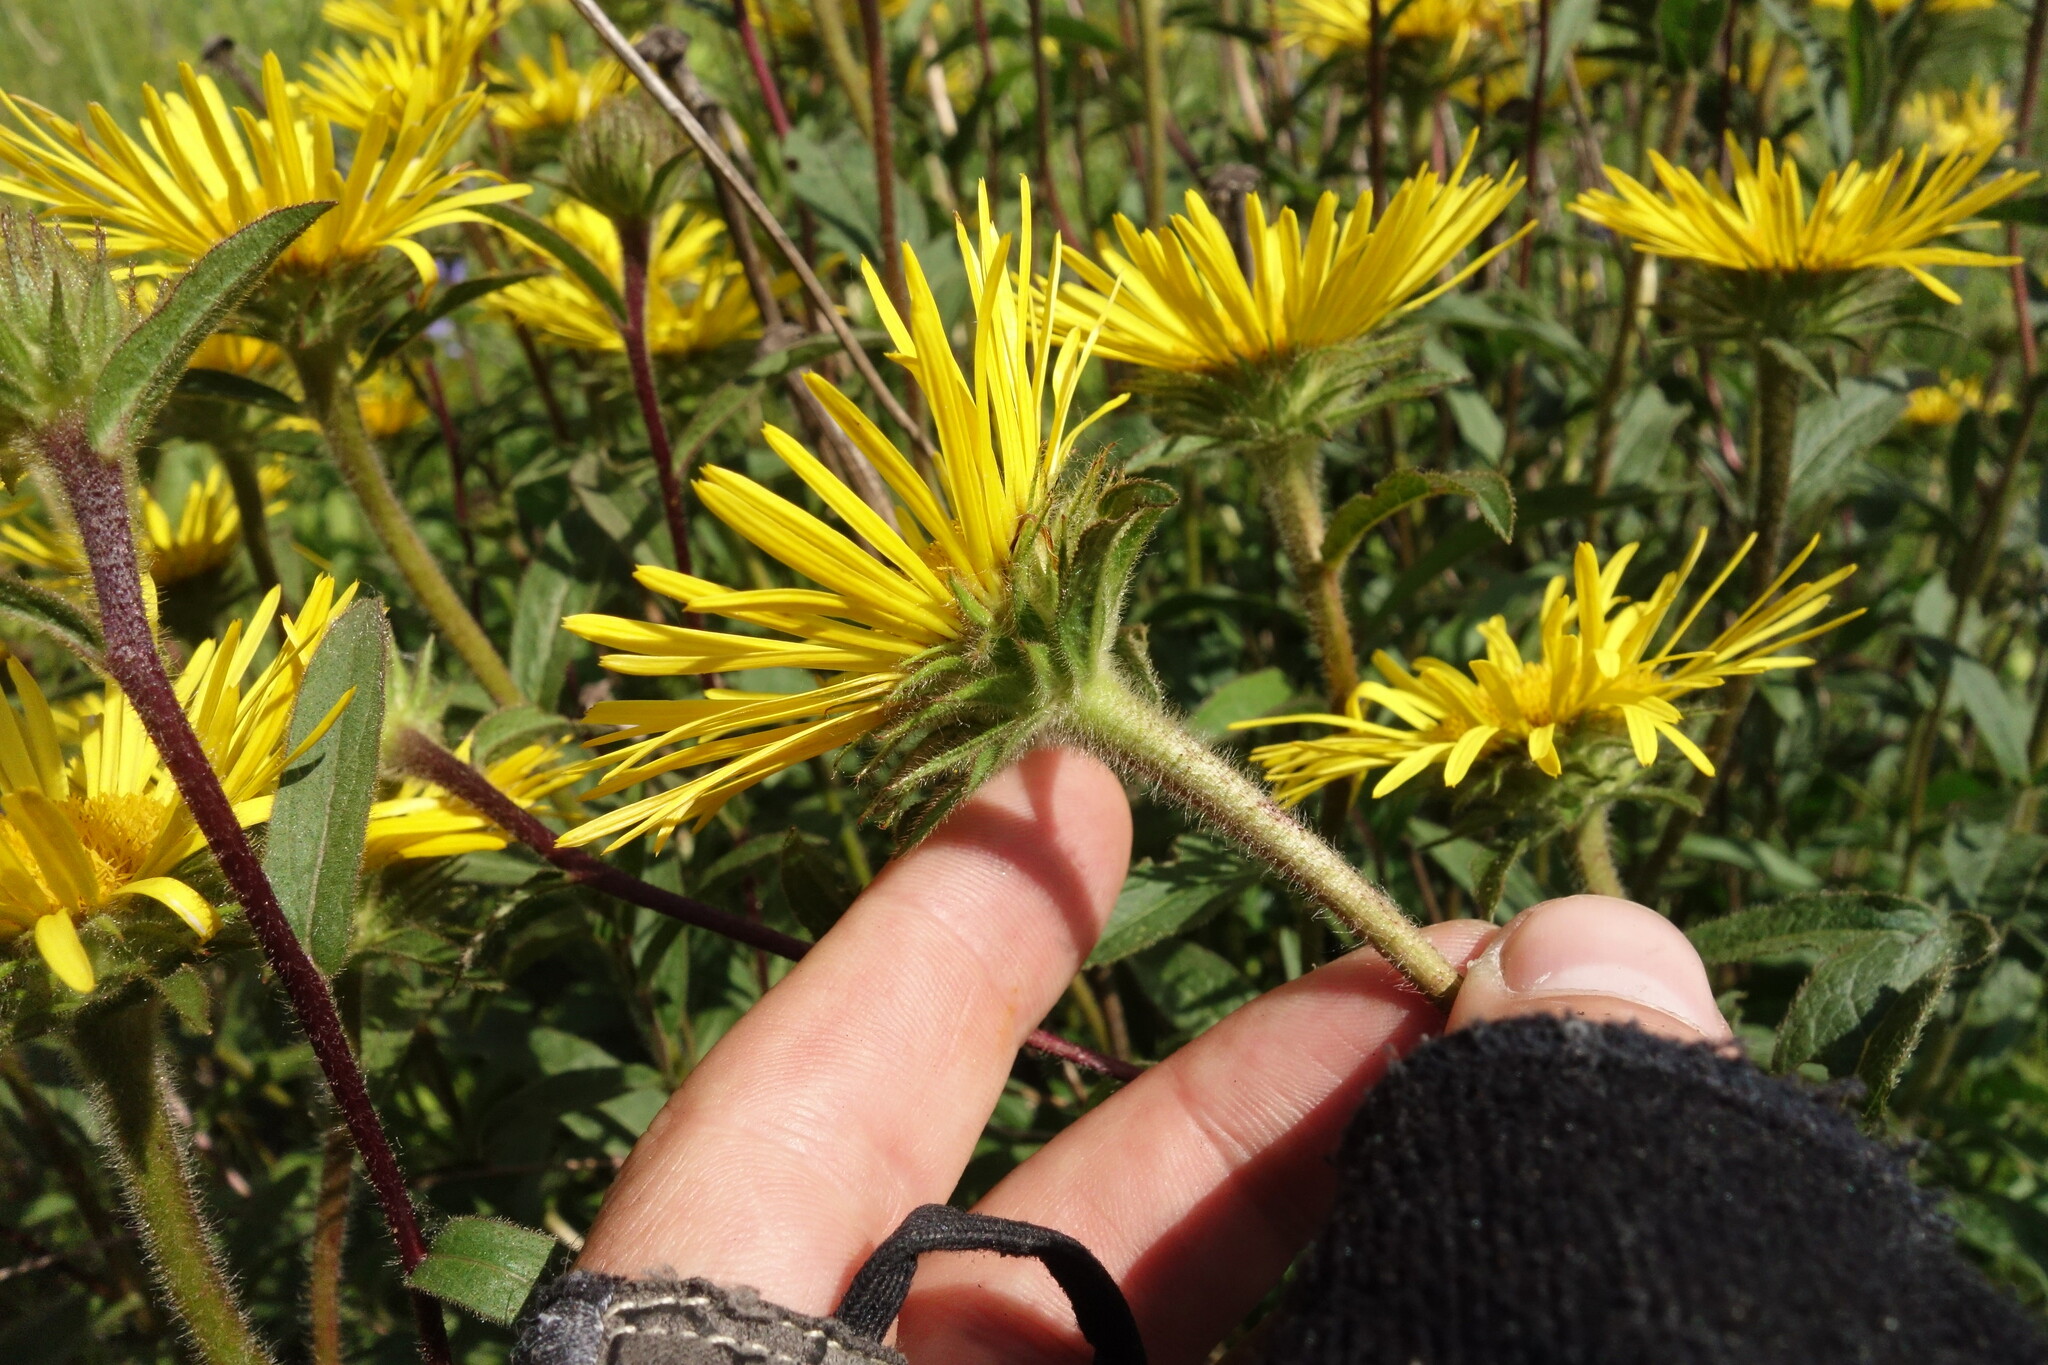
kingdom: Plantae
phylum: Tracheophyta
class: Magnoliopsida
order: Asterales
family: Asteraceae
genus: Pentanema
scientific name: Pentanema hirtum
